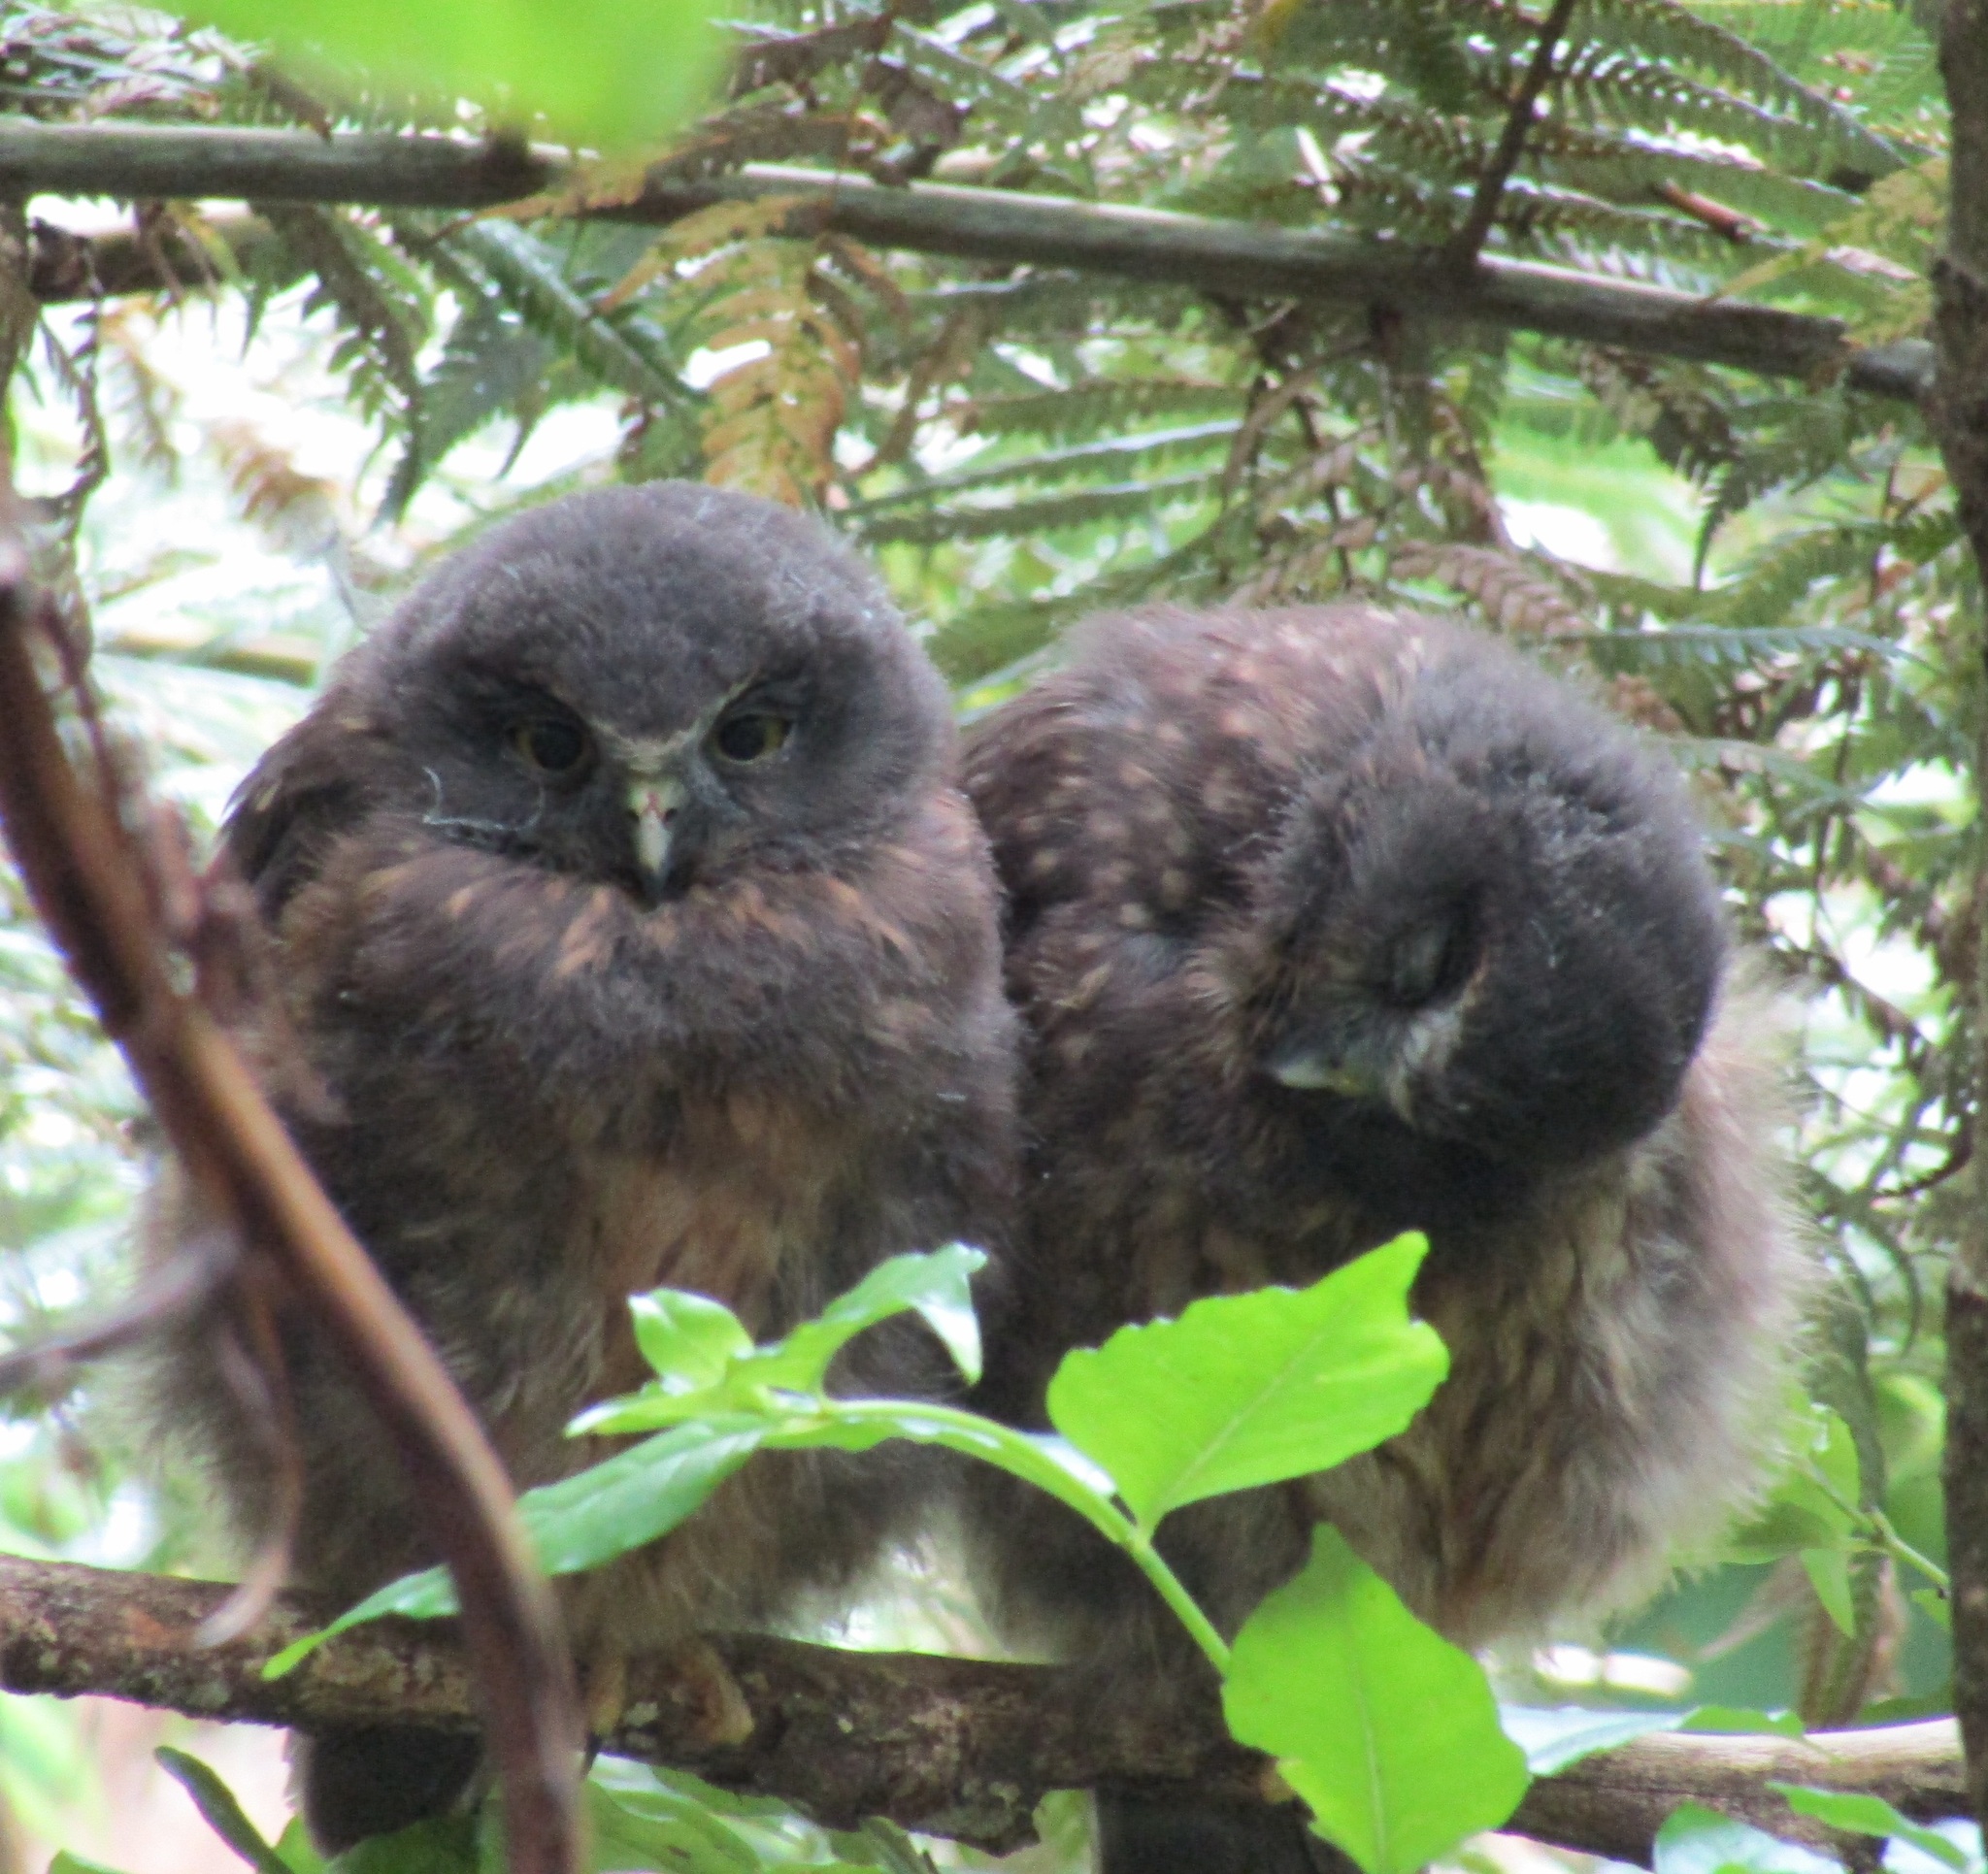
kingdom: Animalia
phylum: Chordata
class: Aves
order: Strigiformes
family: Strigidae
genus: Ninox
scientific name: Ninox novaeseelandiae
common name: Morepork
